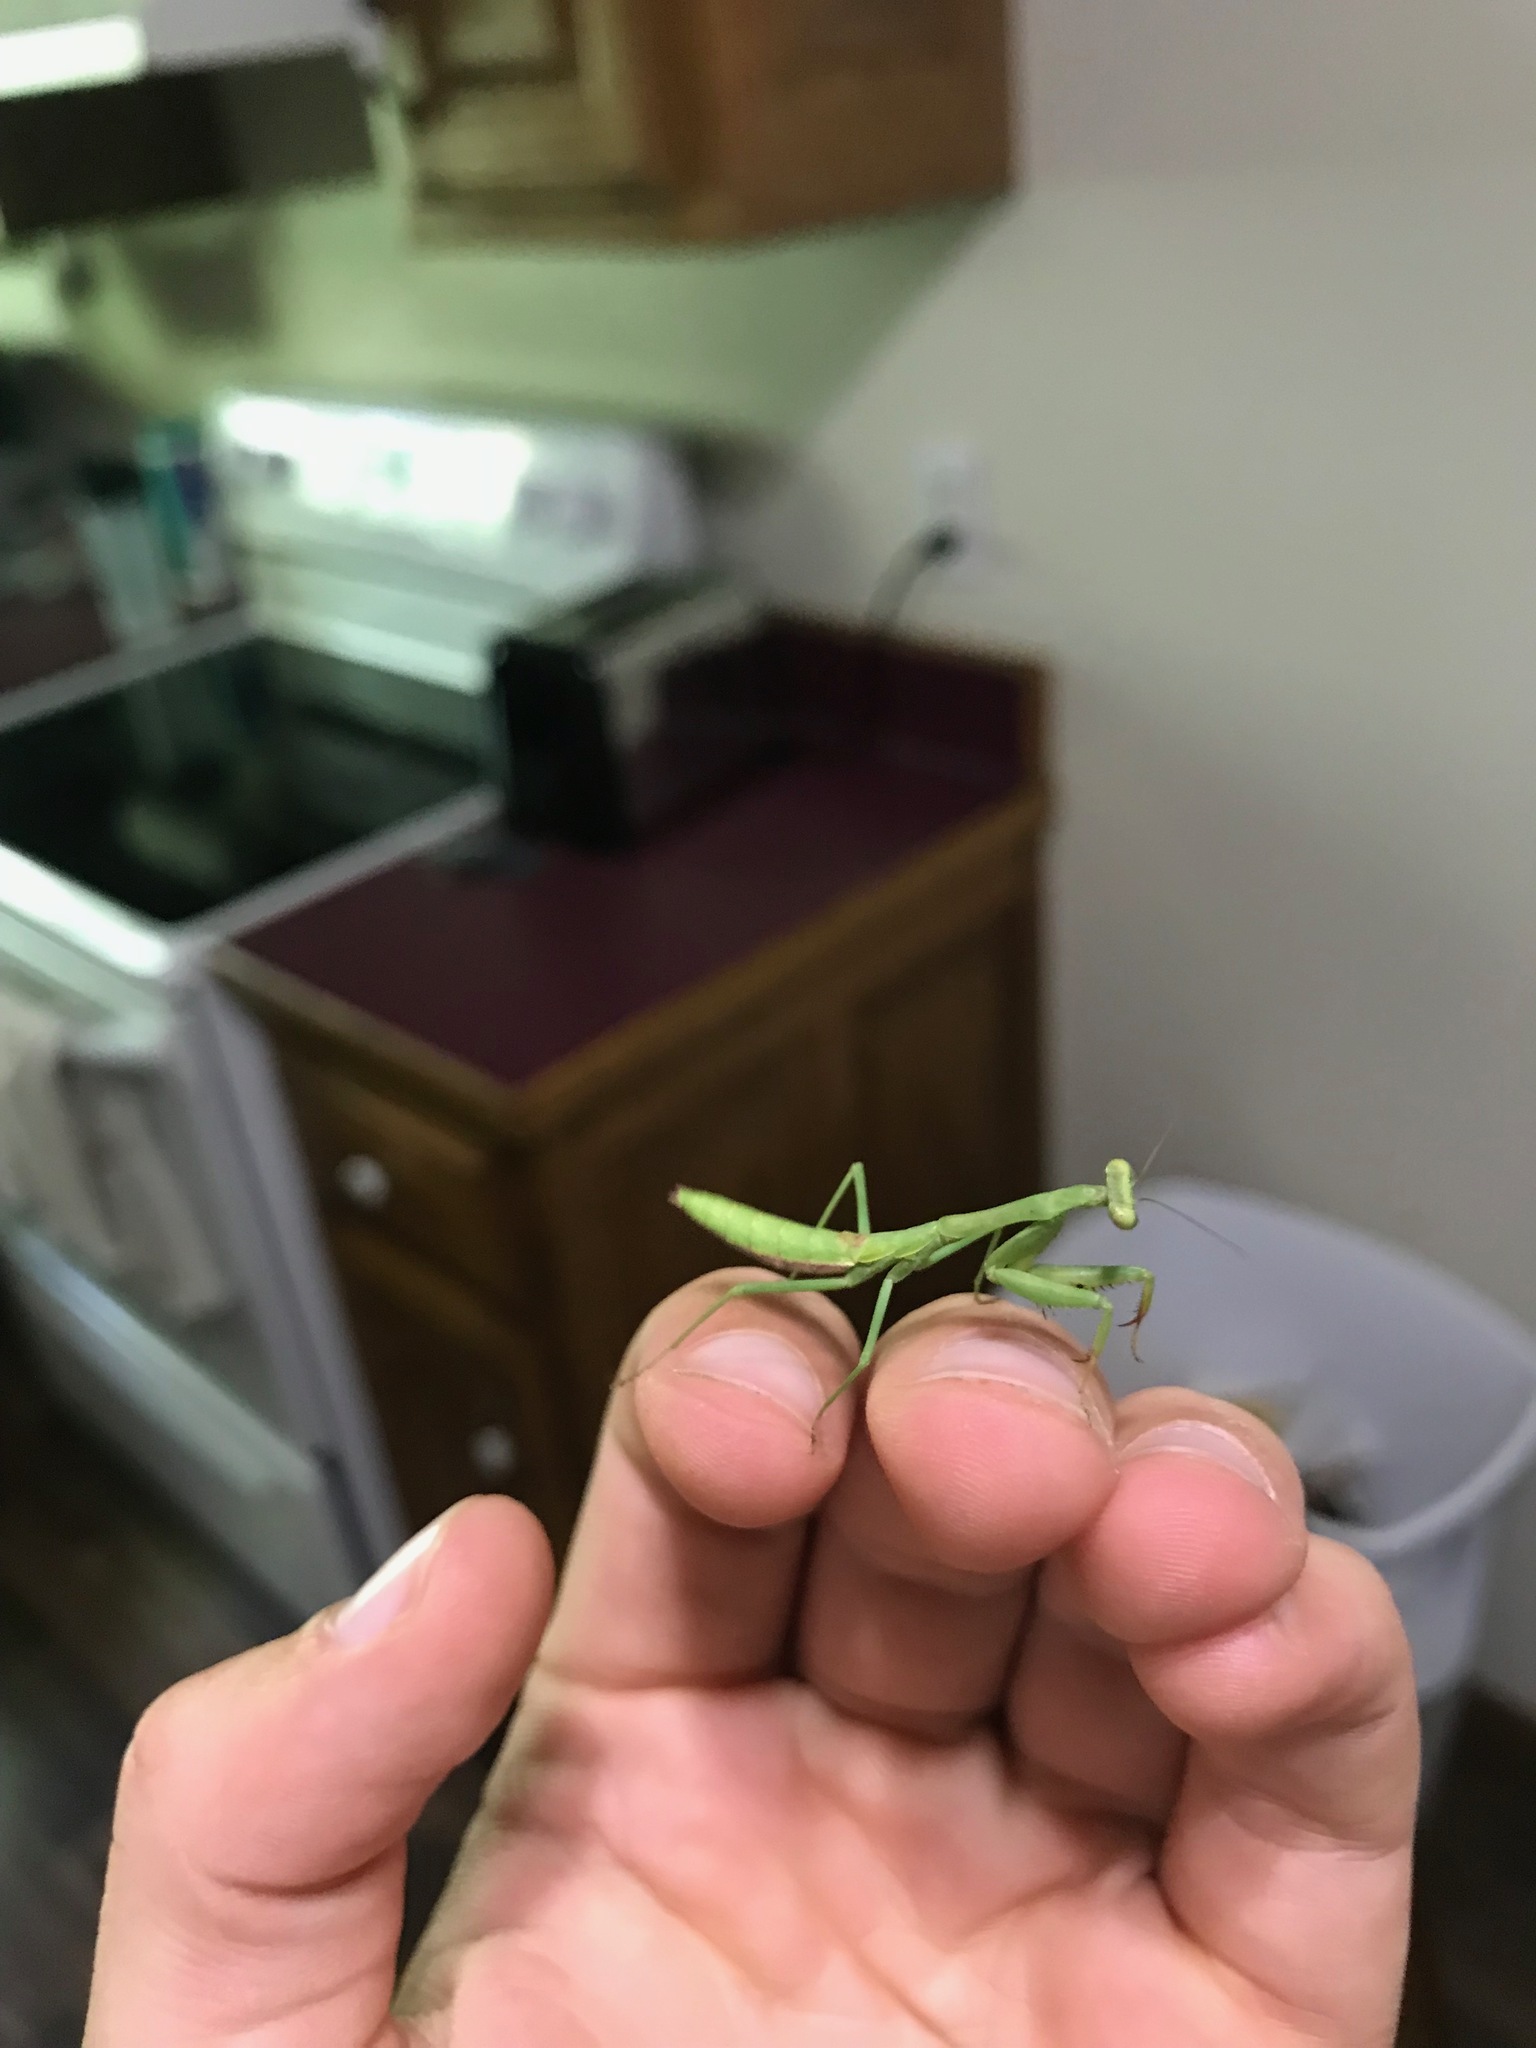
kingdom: Animalia
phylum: Arthropoda
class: Insecta
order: Mantodea
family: Mantidae
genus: Stagmomantis
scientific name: Stagmomantis carolina
